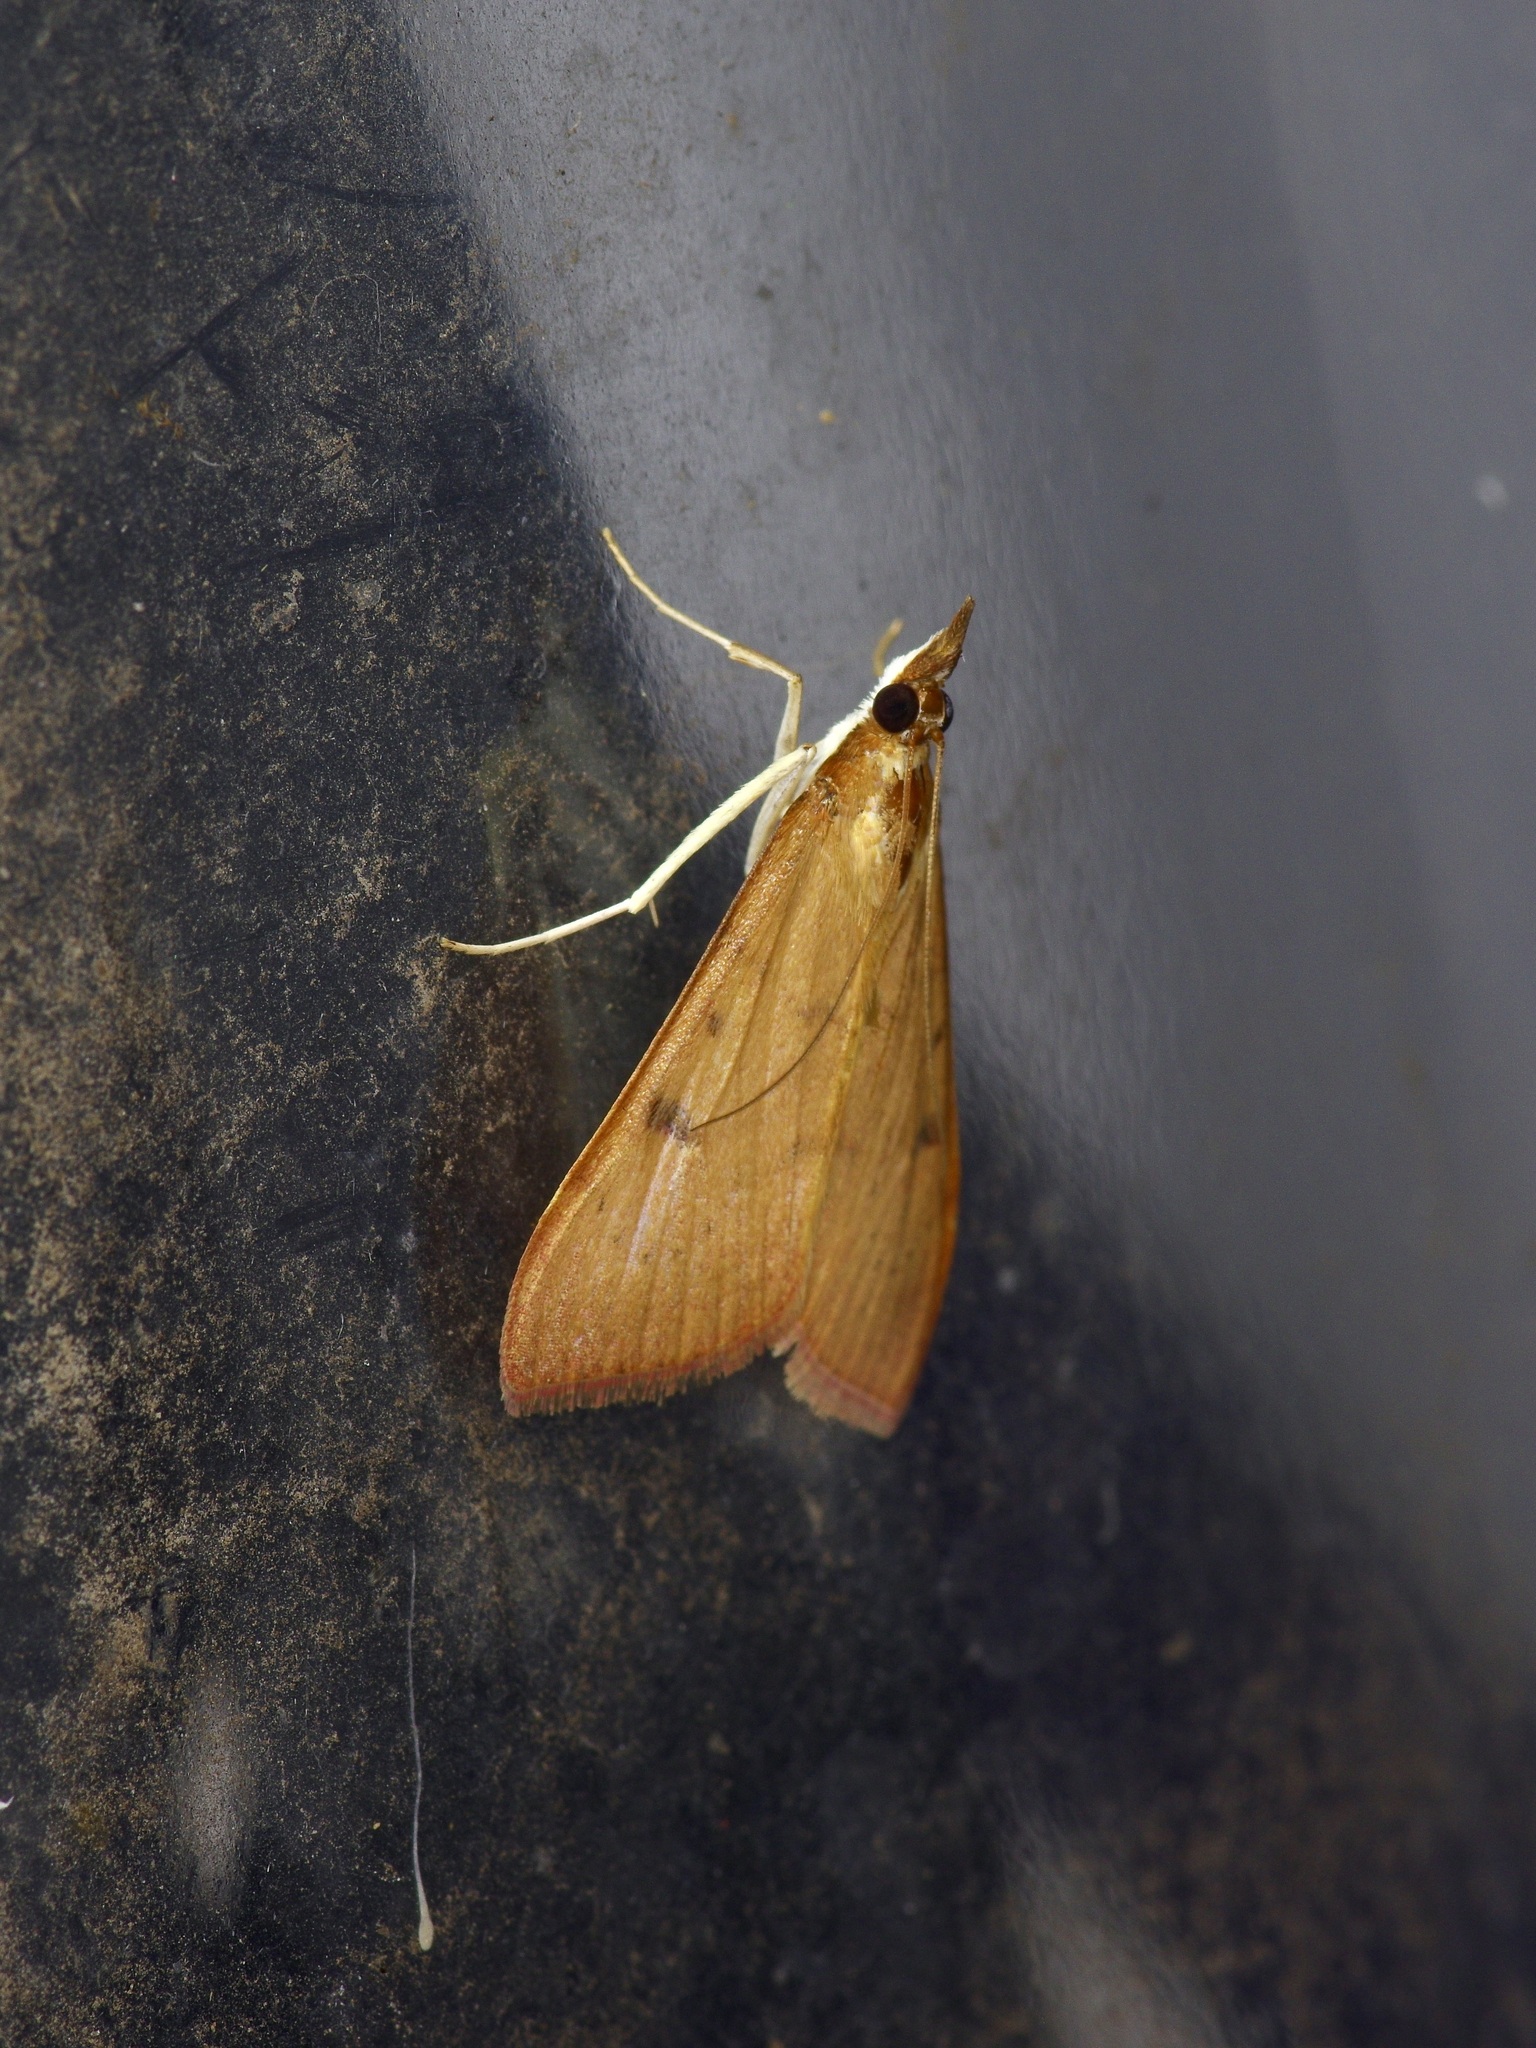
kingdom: Animalia
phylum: Arthropoda
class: Insecta
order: Lepidoptera
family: Crambidae
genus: Uresiphita
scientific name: Uresiphita reversalis
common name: Genista broom moth
